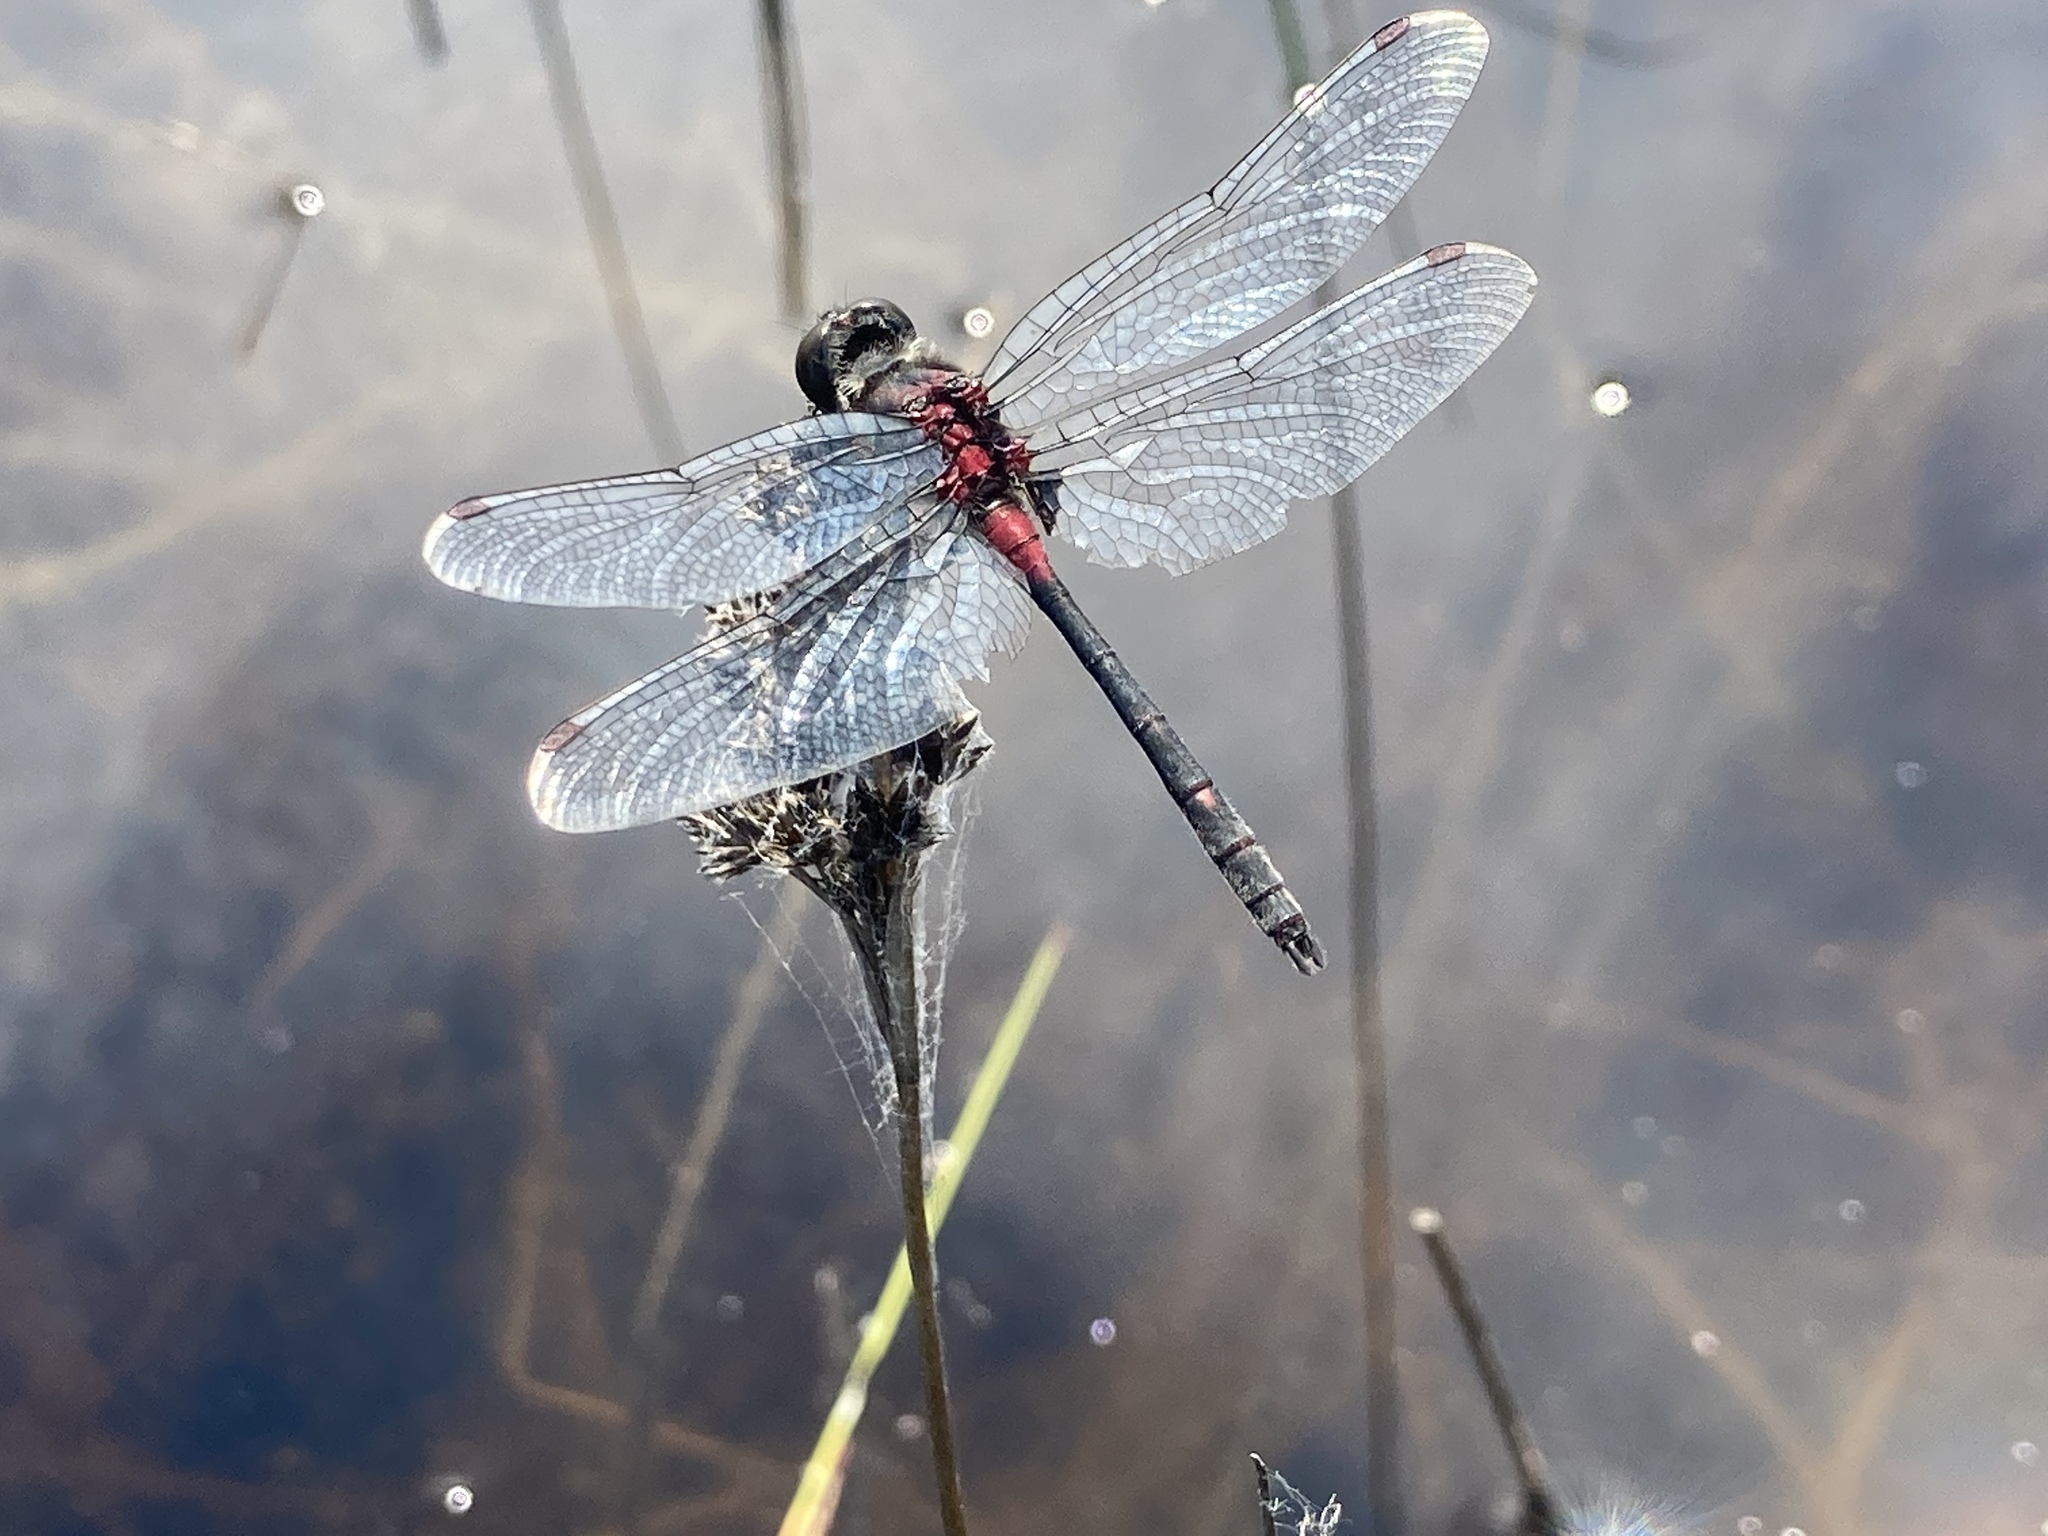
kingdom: Animalia
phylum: Arthropoda
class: Insecta
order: Odonata
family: Libellulidae
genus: Leucorrhinia
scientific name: Leucorrhinia glacialis
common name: Crimson-ringed whiteface
